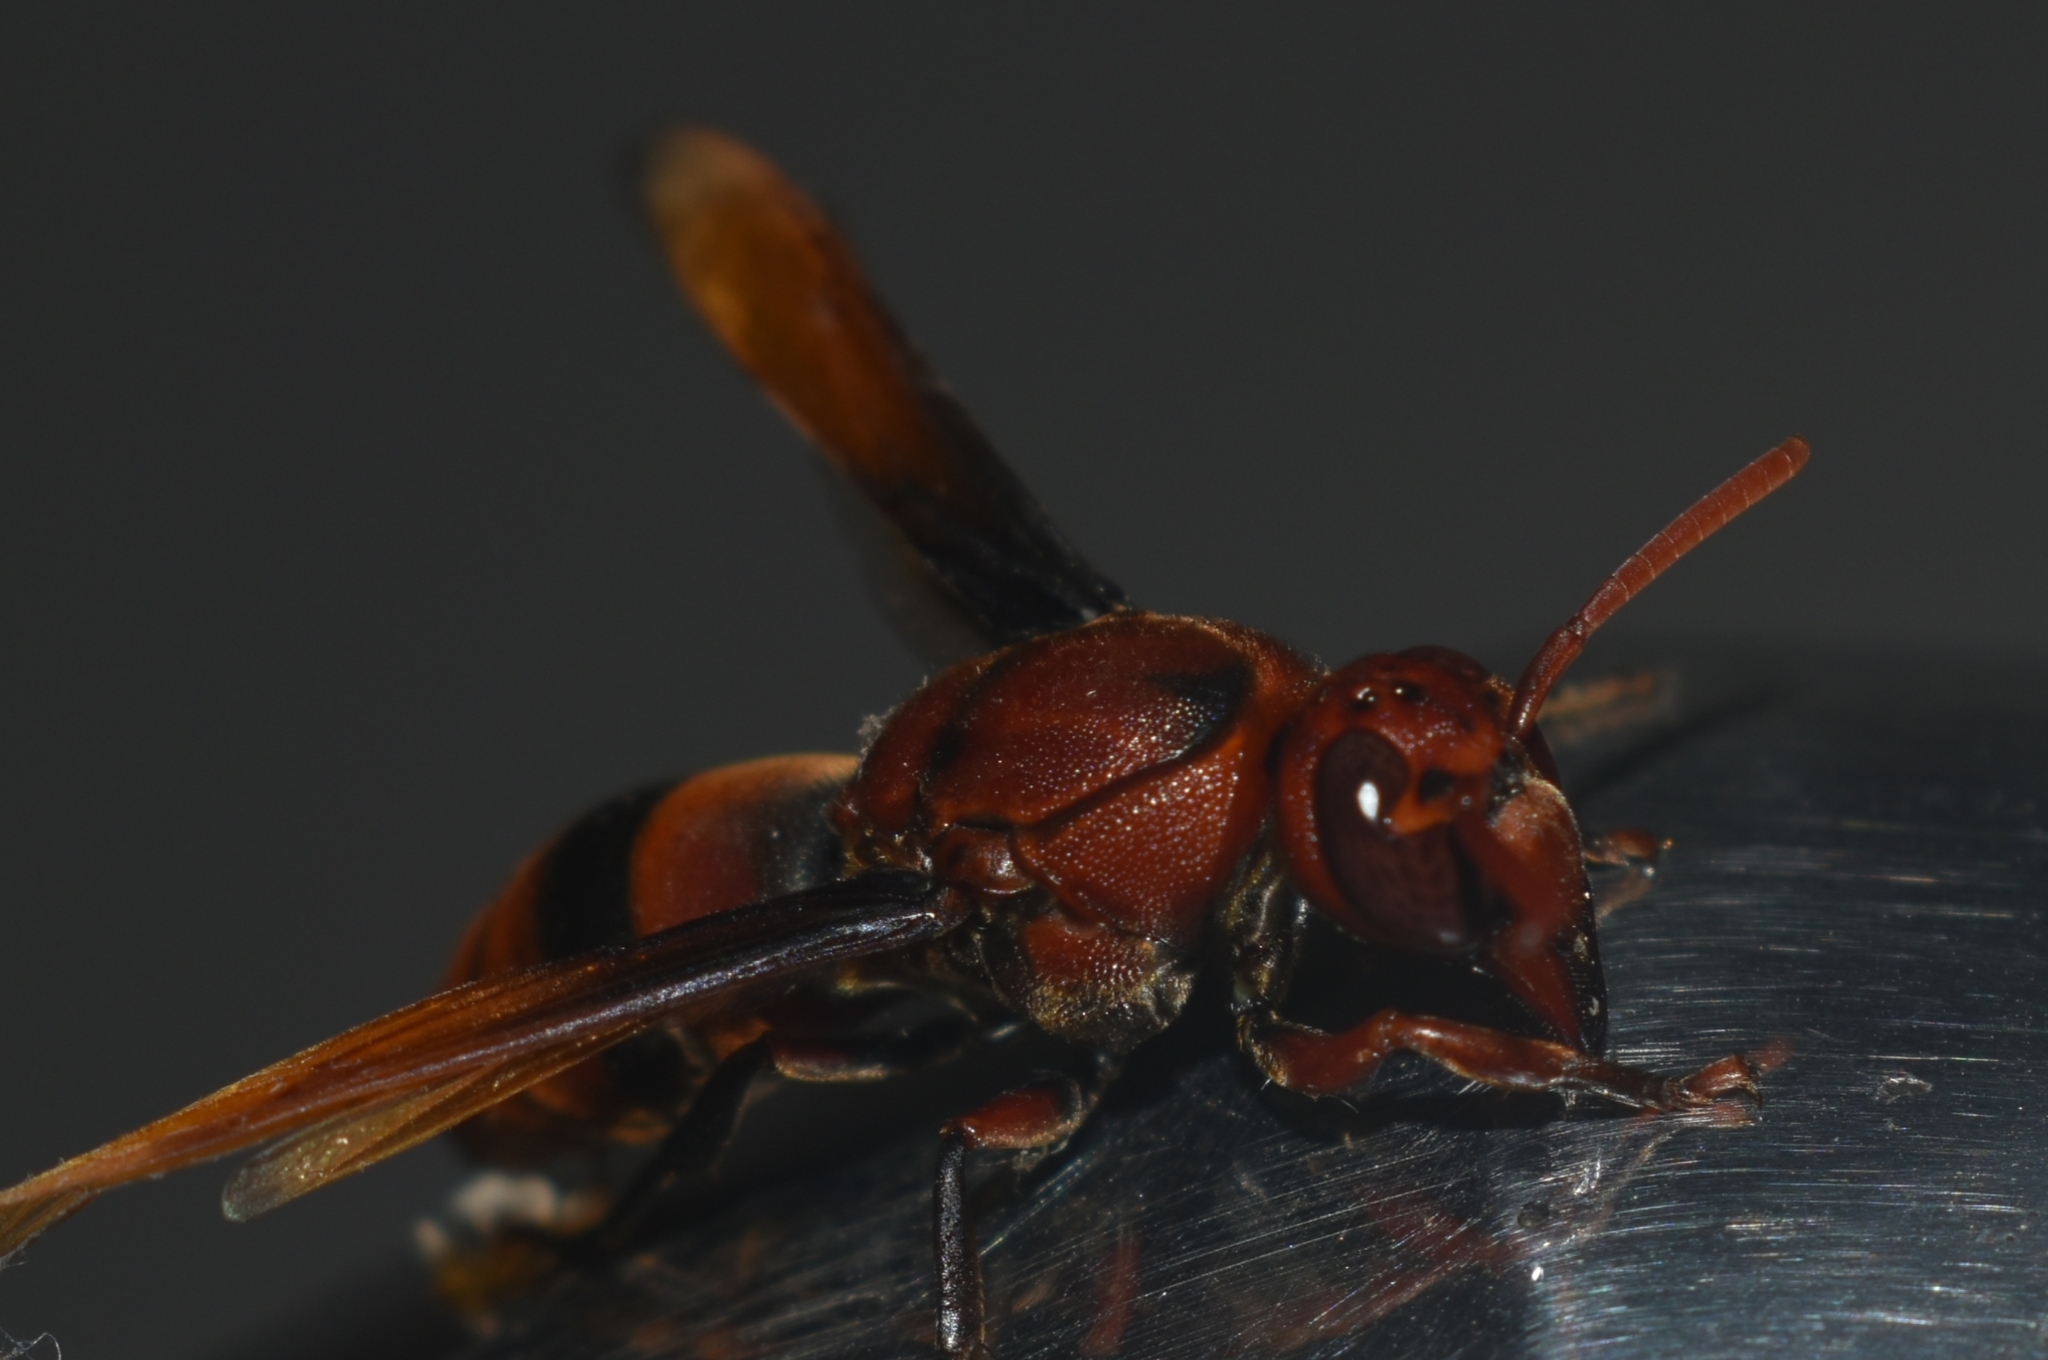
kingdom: Animalia
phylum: Arthropoda
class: Insecta
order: Hymenoptera
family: Eumenidae
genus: Rhynchium
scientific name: Rhynchium brunneum
